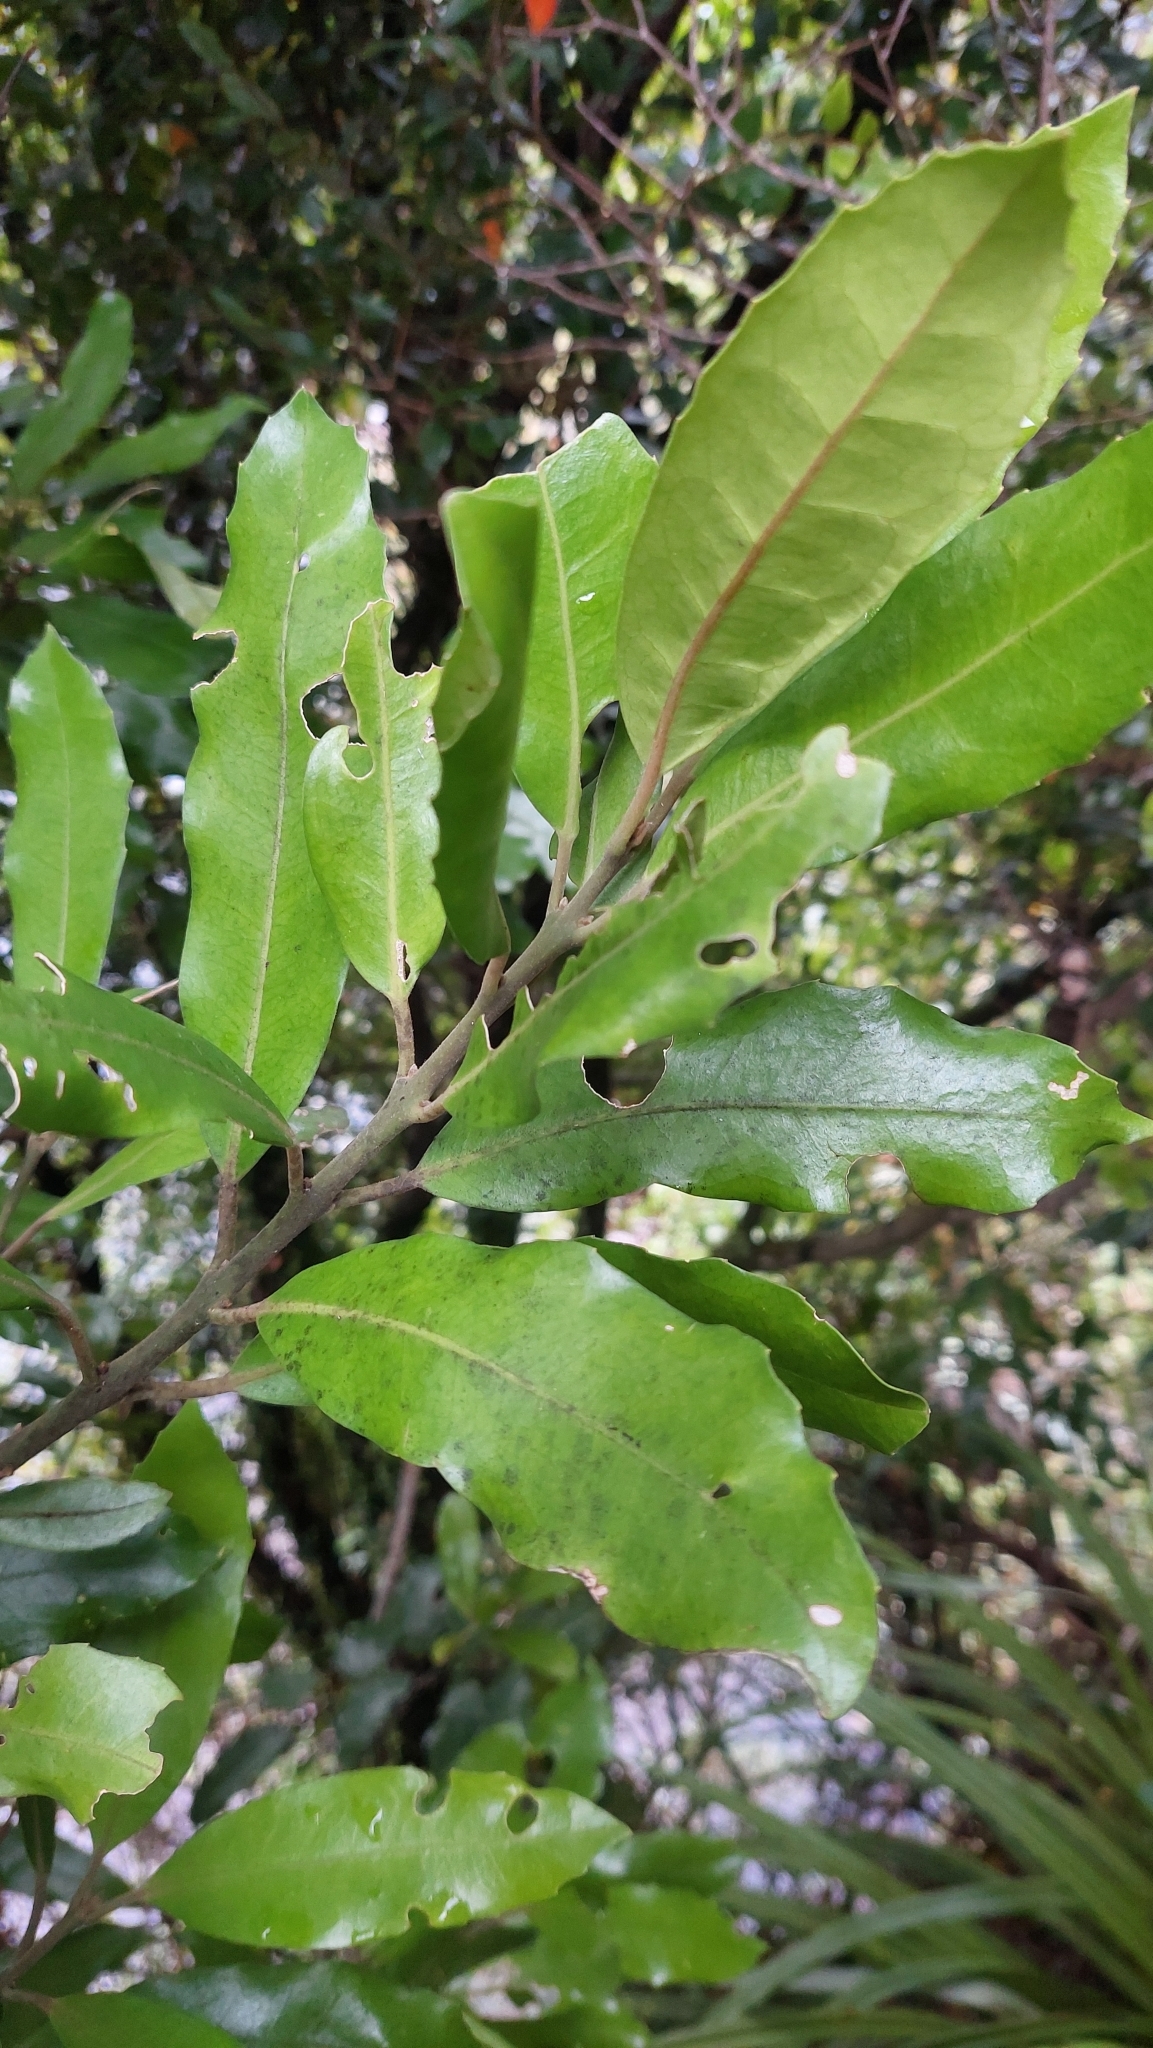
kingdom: Plantae
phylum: Tracheophyta
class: Magnoliopsida
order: Laurales
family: Monimiaceae
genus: Hedycarya
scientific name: Hedycarya arborea
